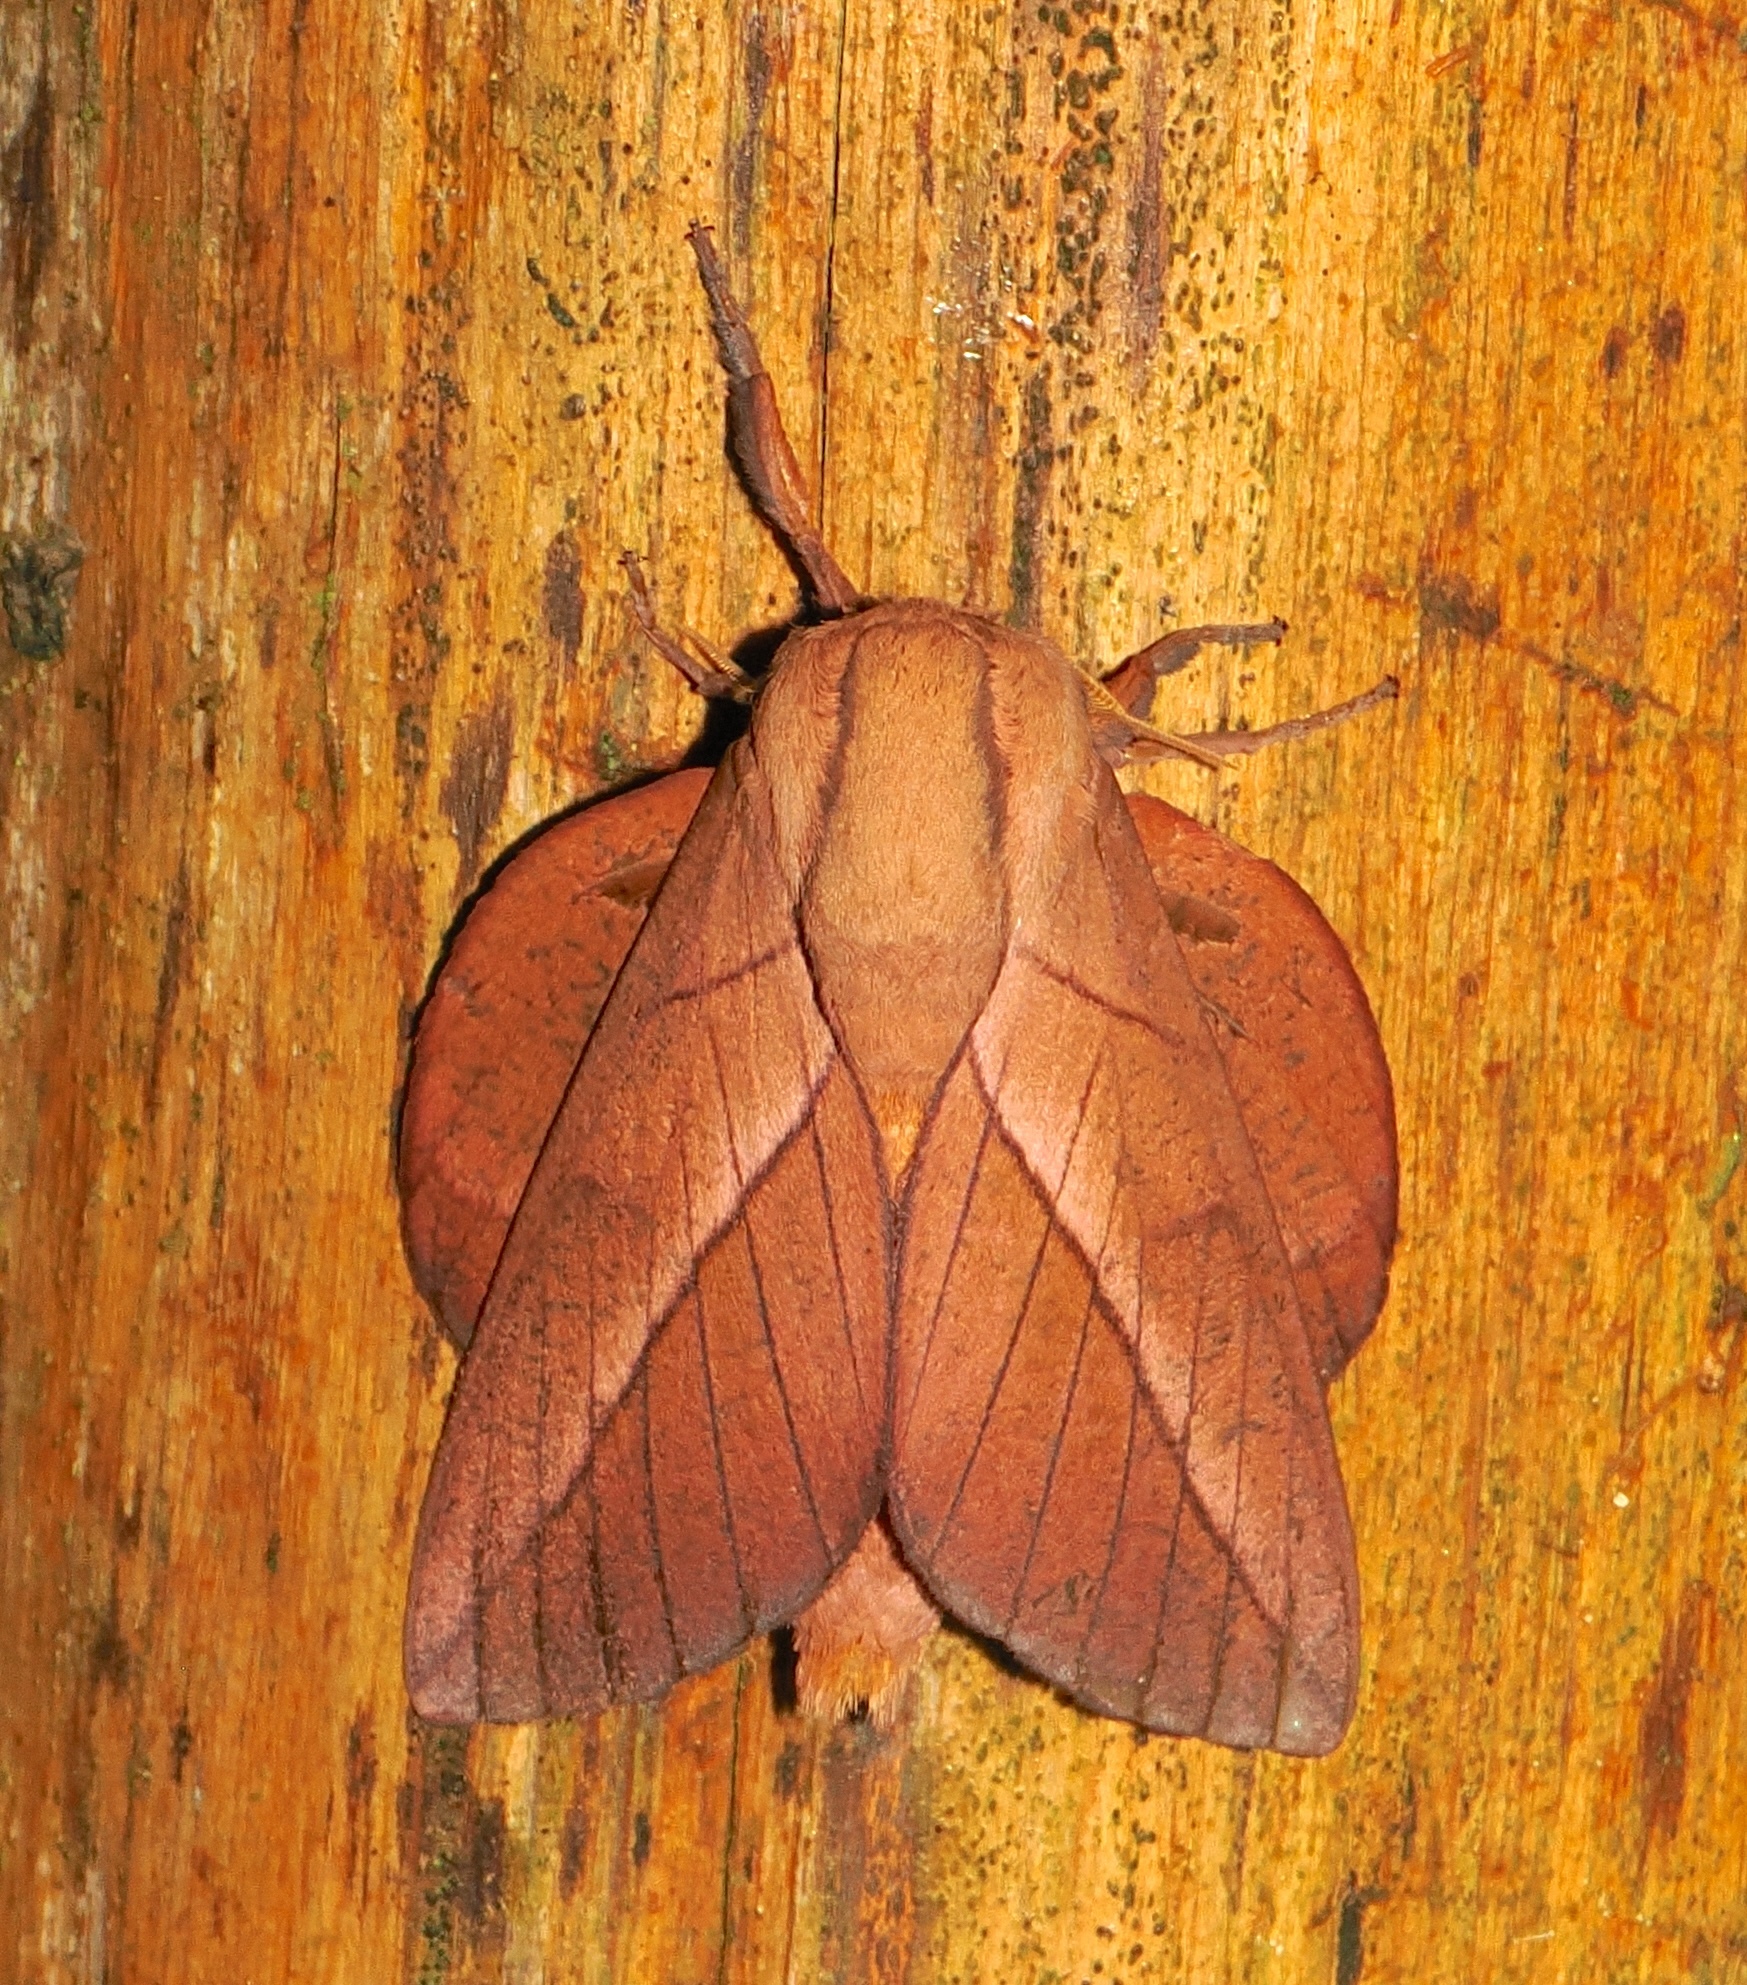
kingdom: Animalia
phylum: Arthropoda
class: Insecta
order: Lepidoptera
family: Saturniidae
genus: Oiticella
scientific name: Oiticella convergens
